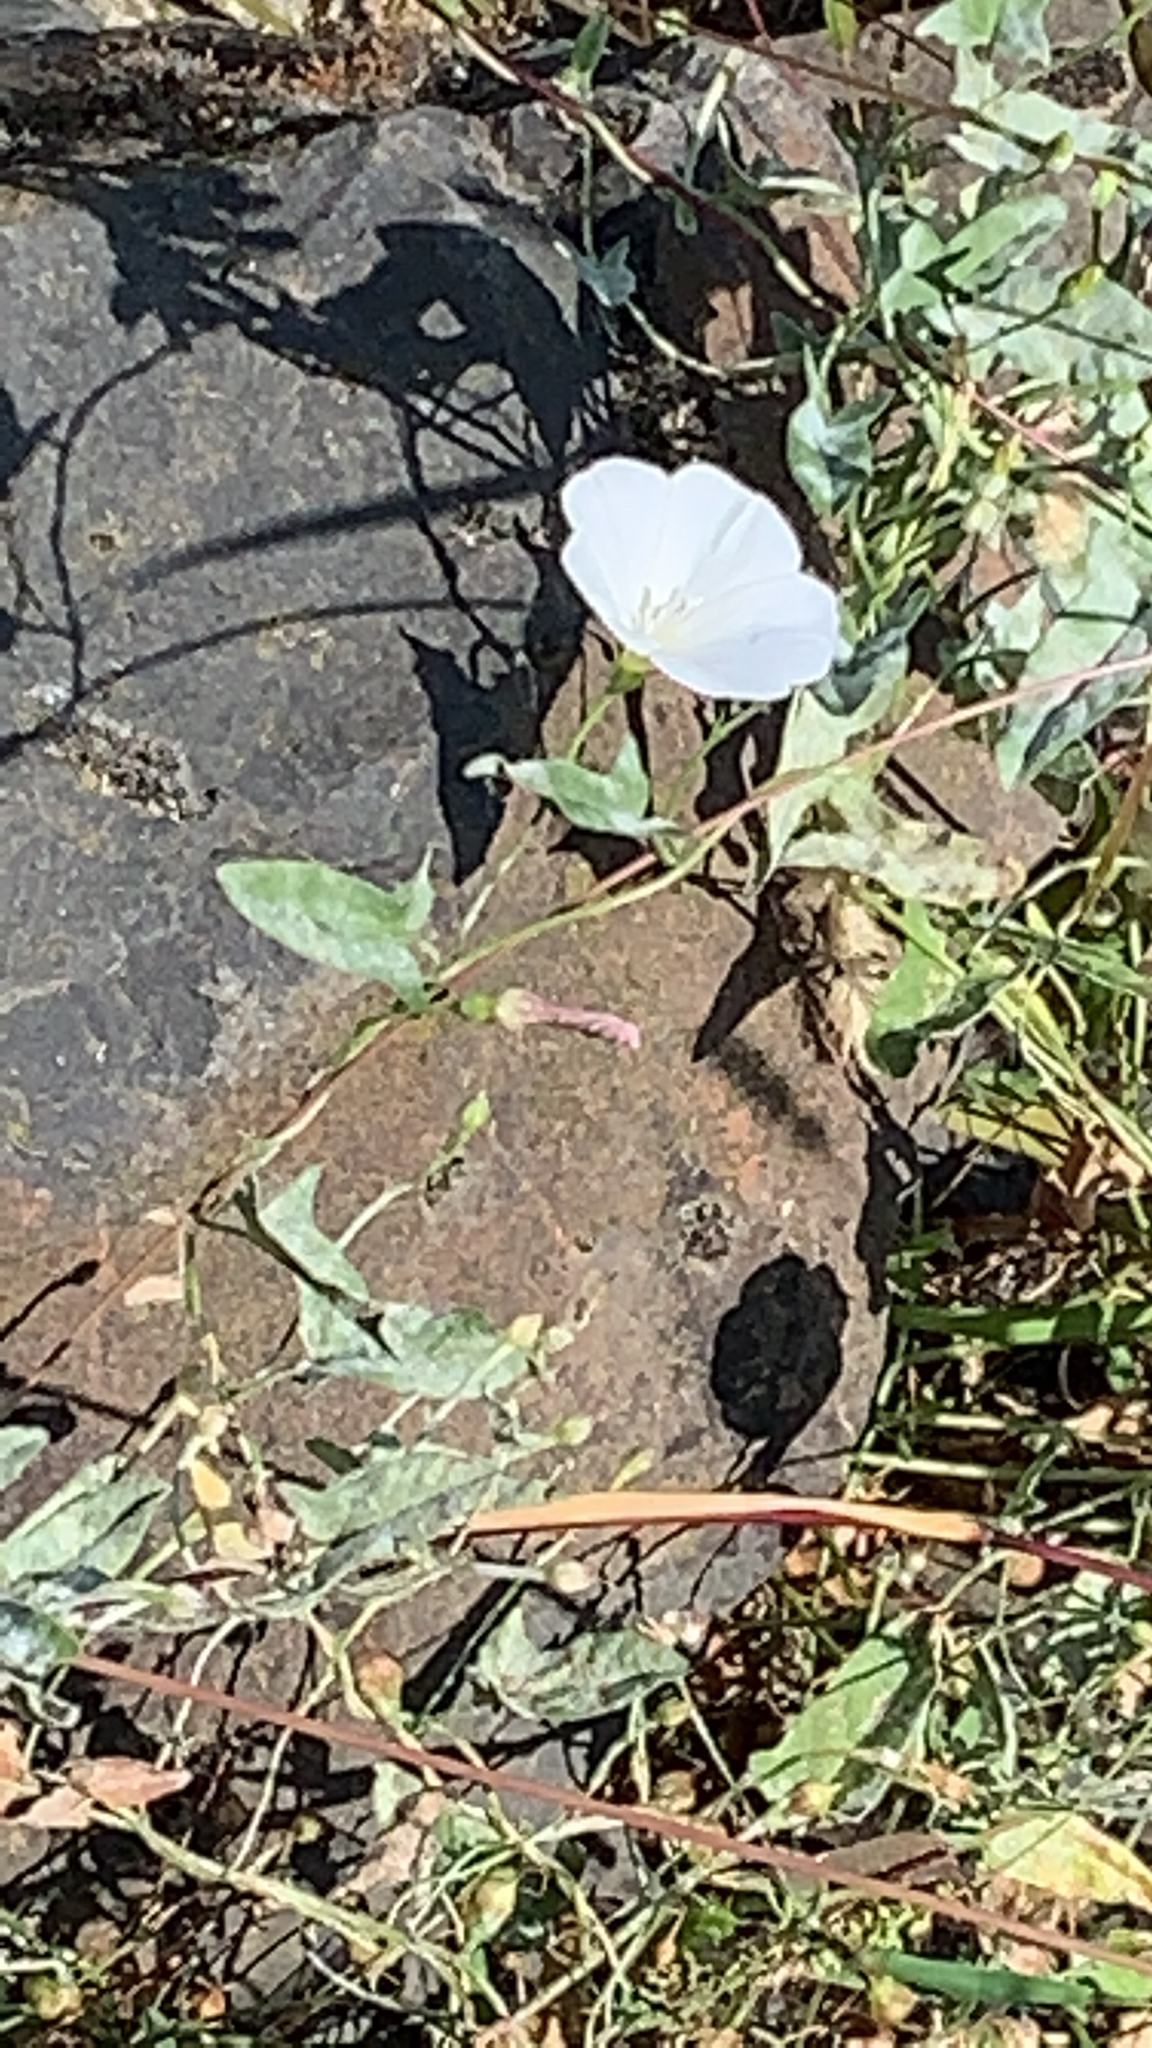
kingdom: Plantae
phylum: Tracheophyta
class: Magnoliopsida
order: Solanales
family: Convolvulaceae
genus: Convolvulus
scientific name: Convolvulus arvensis
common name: Field bindweed
